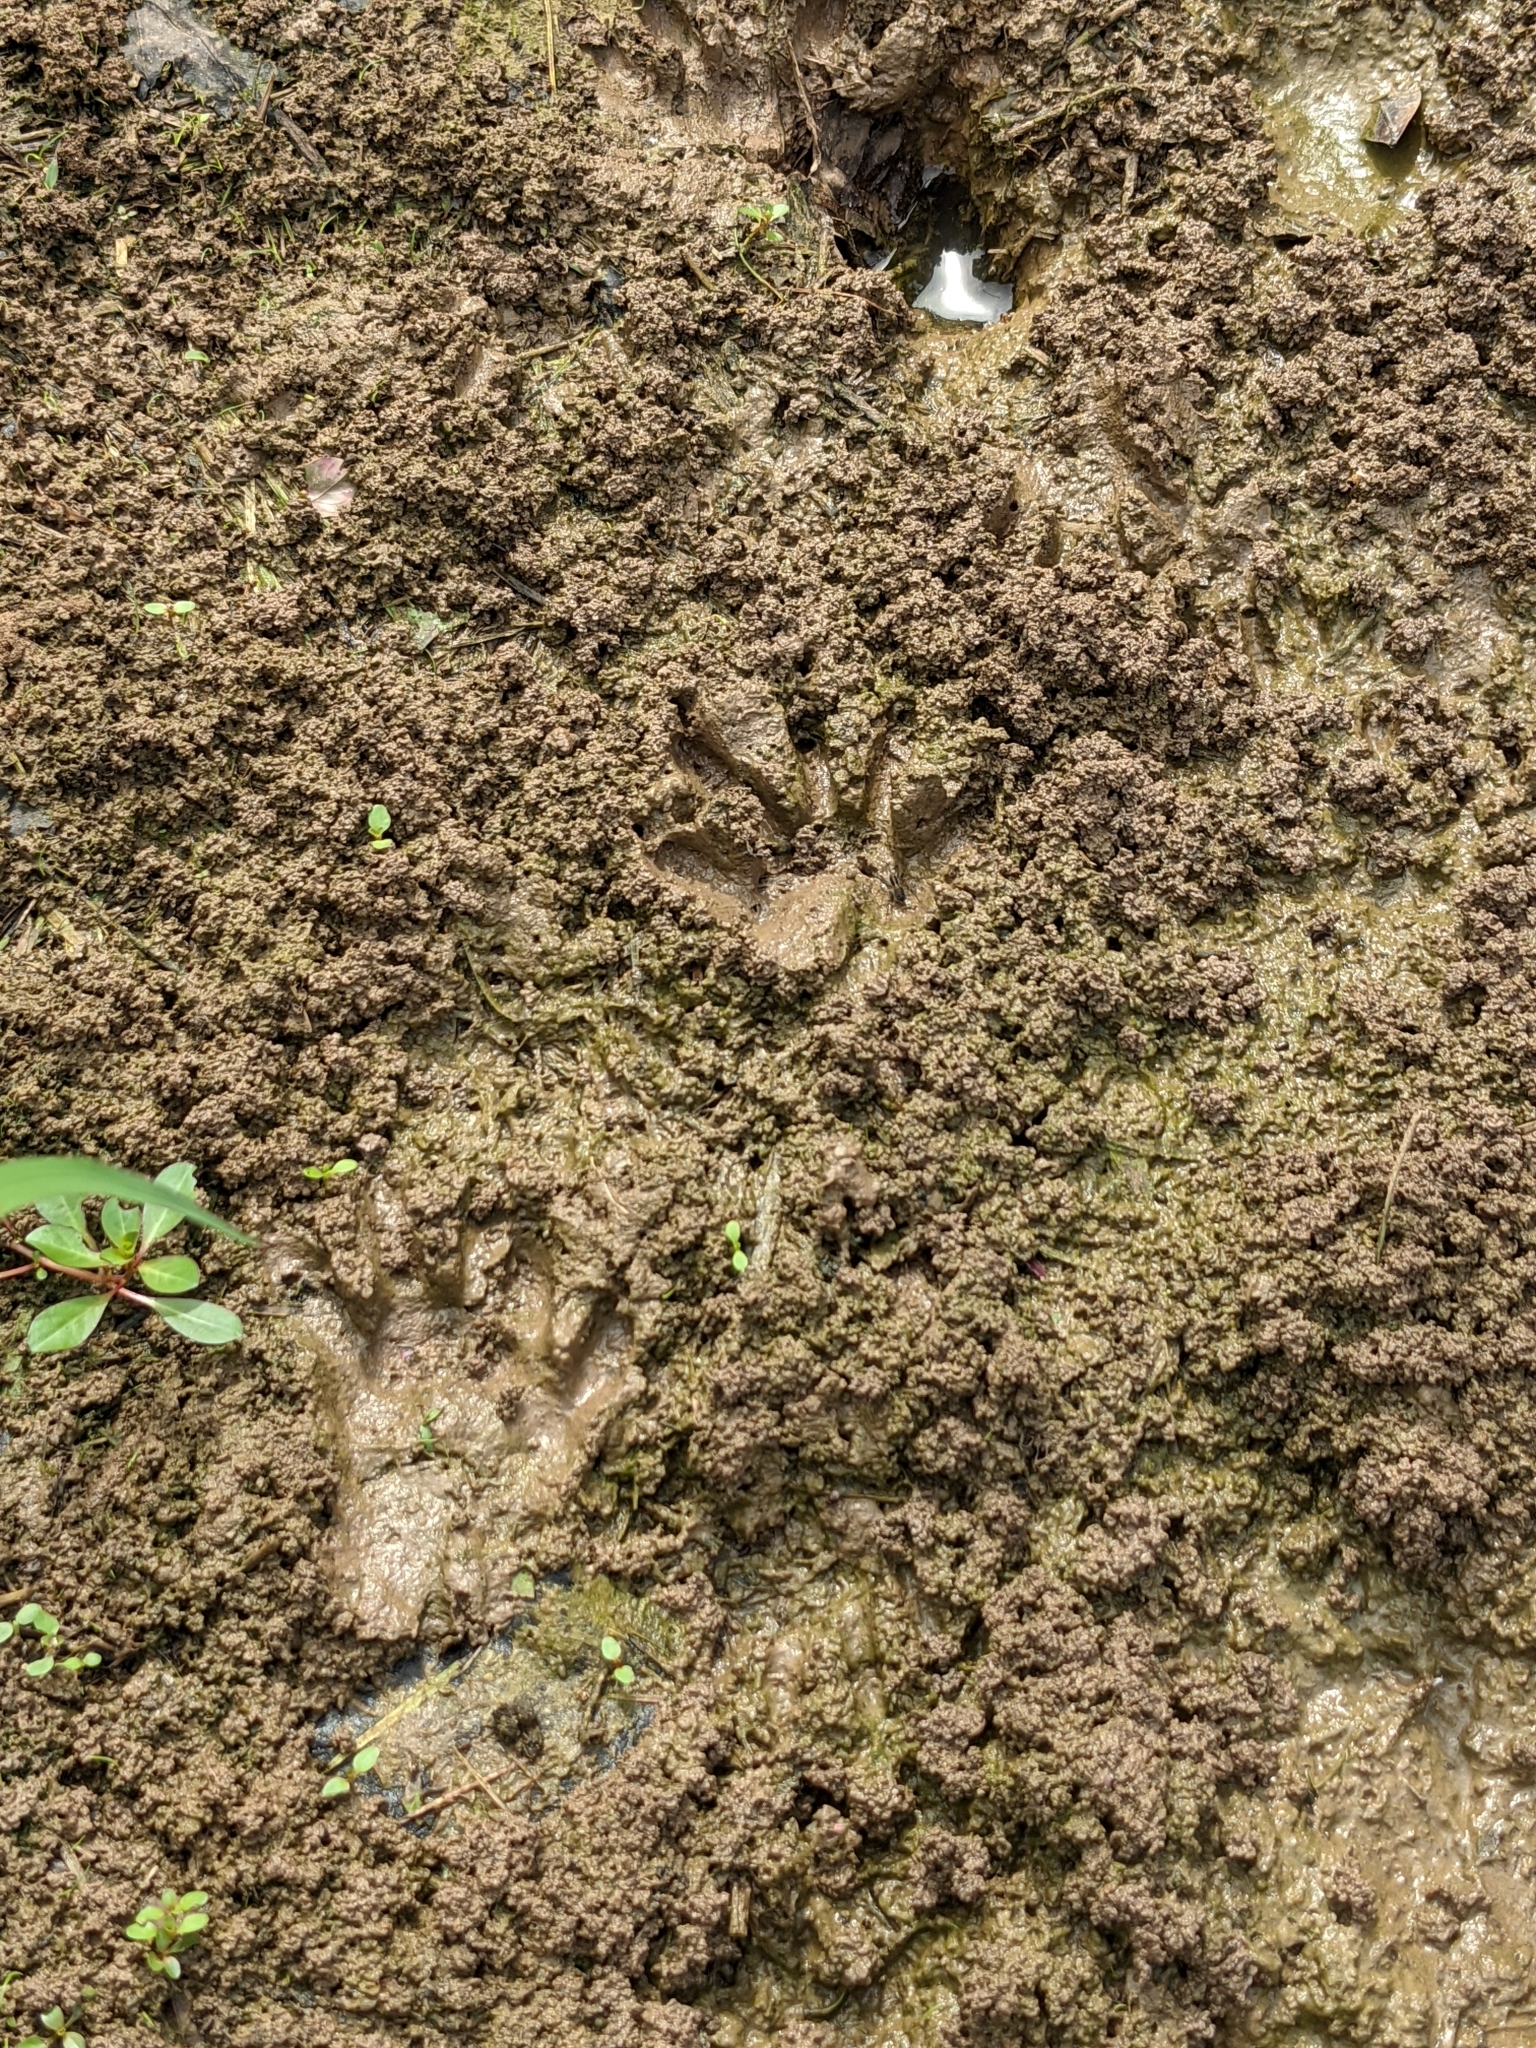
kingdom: Animalia
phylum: Chordata
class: Mammalia
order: Carnivora
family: Procyonidae
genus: Procyon
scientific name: Procyon lotor
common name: Raccoon
